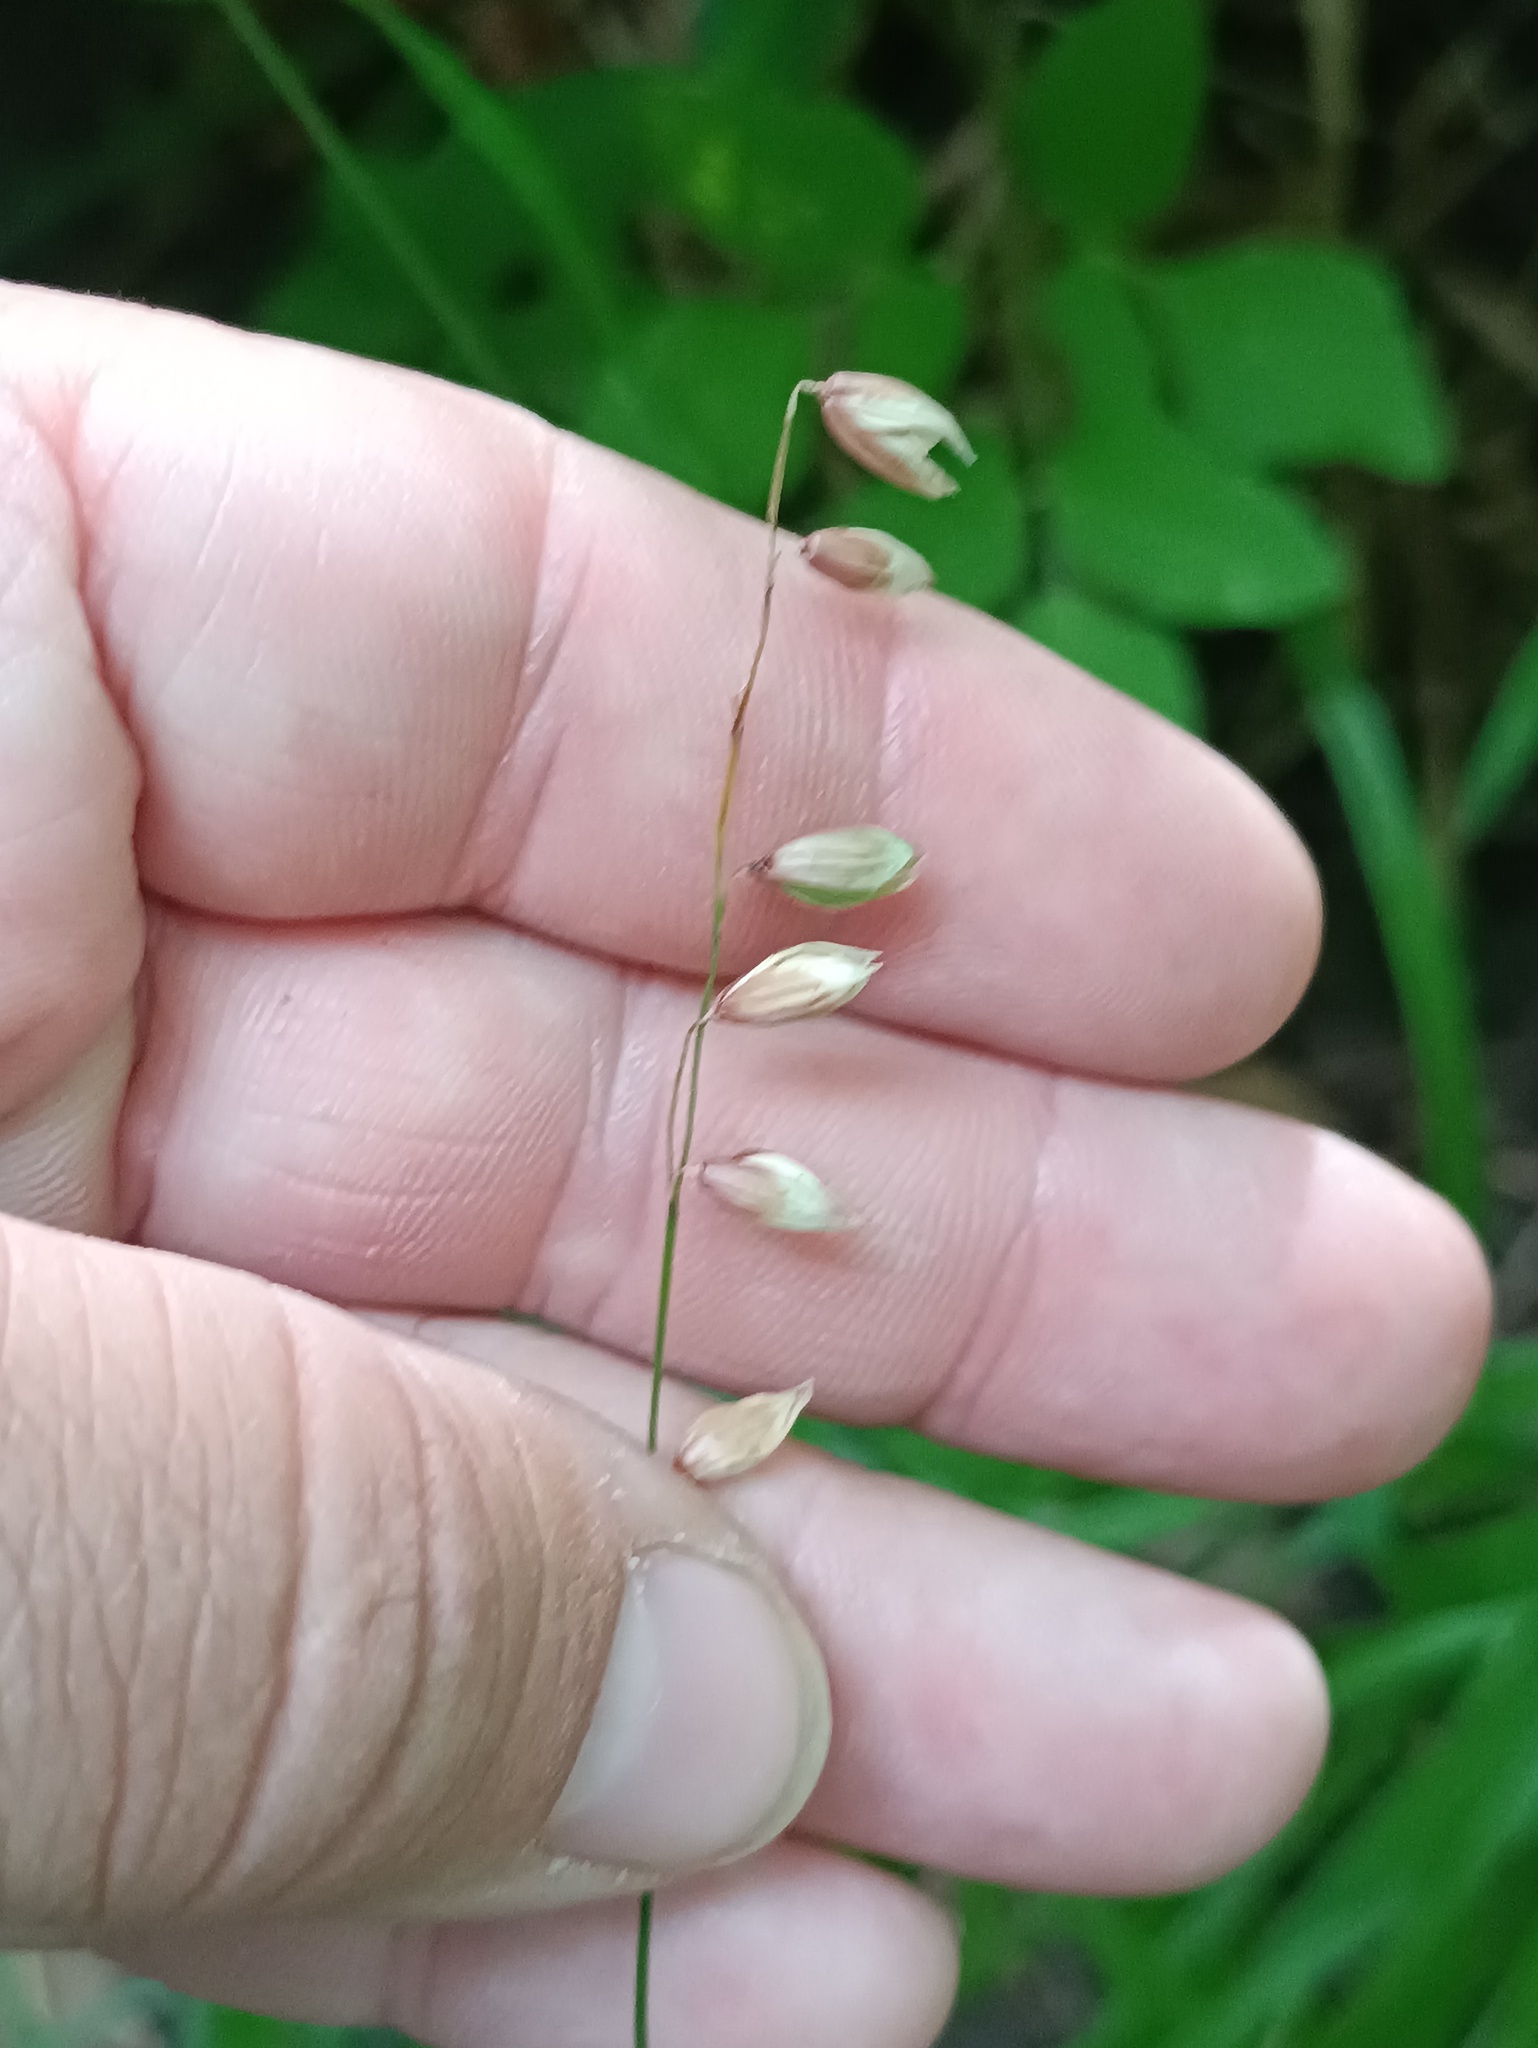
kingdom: Plantae
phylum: Tracheophyta
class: Liliopsida
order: Poales
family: Poaceae
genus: Melica
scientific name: Melica nutans
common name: Mountain melick
